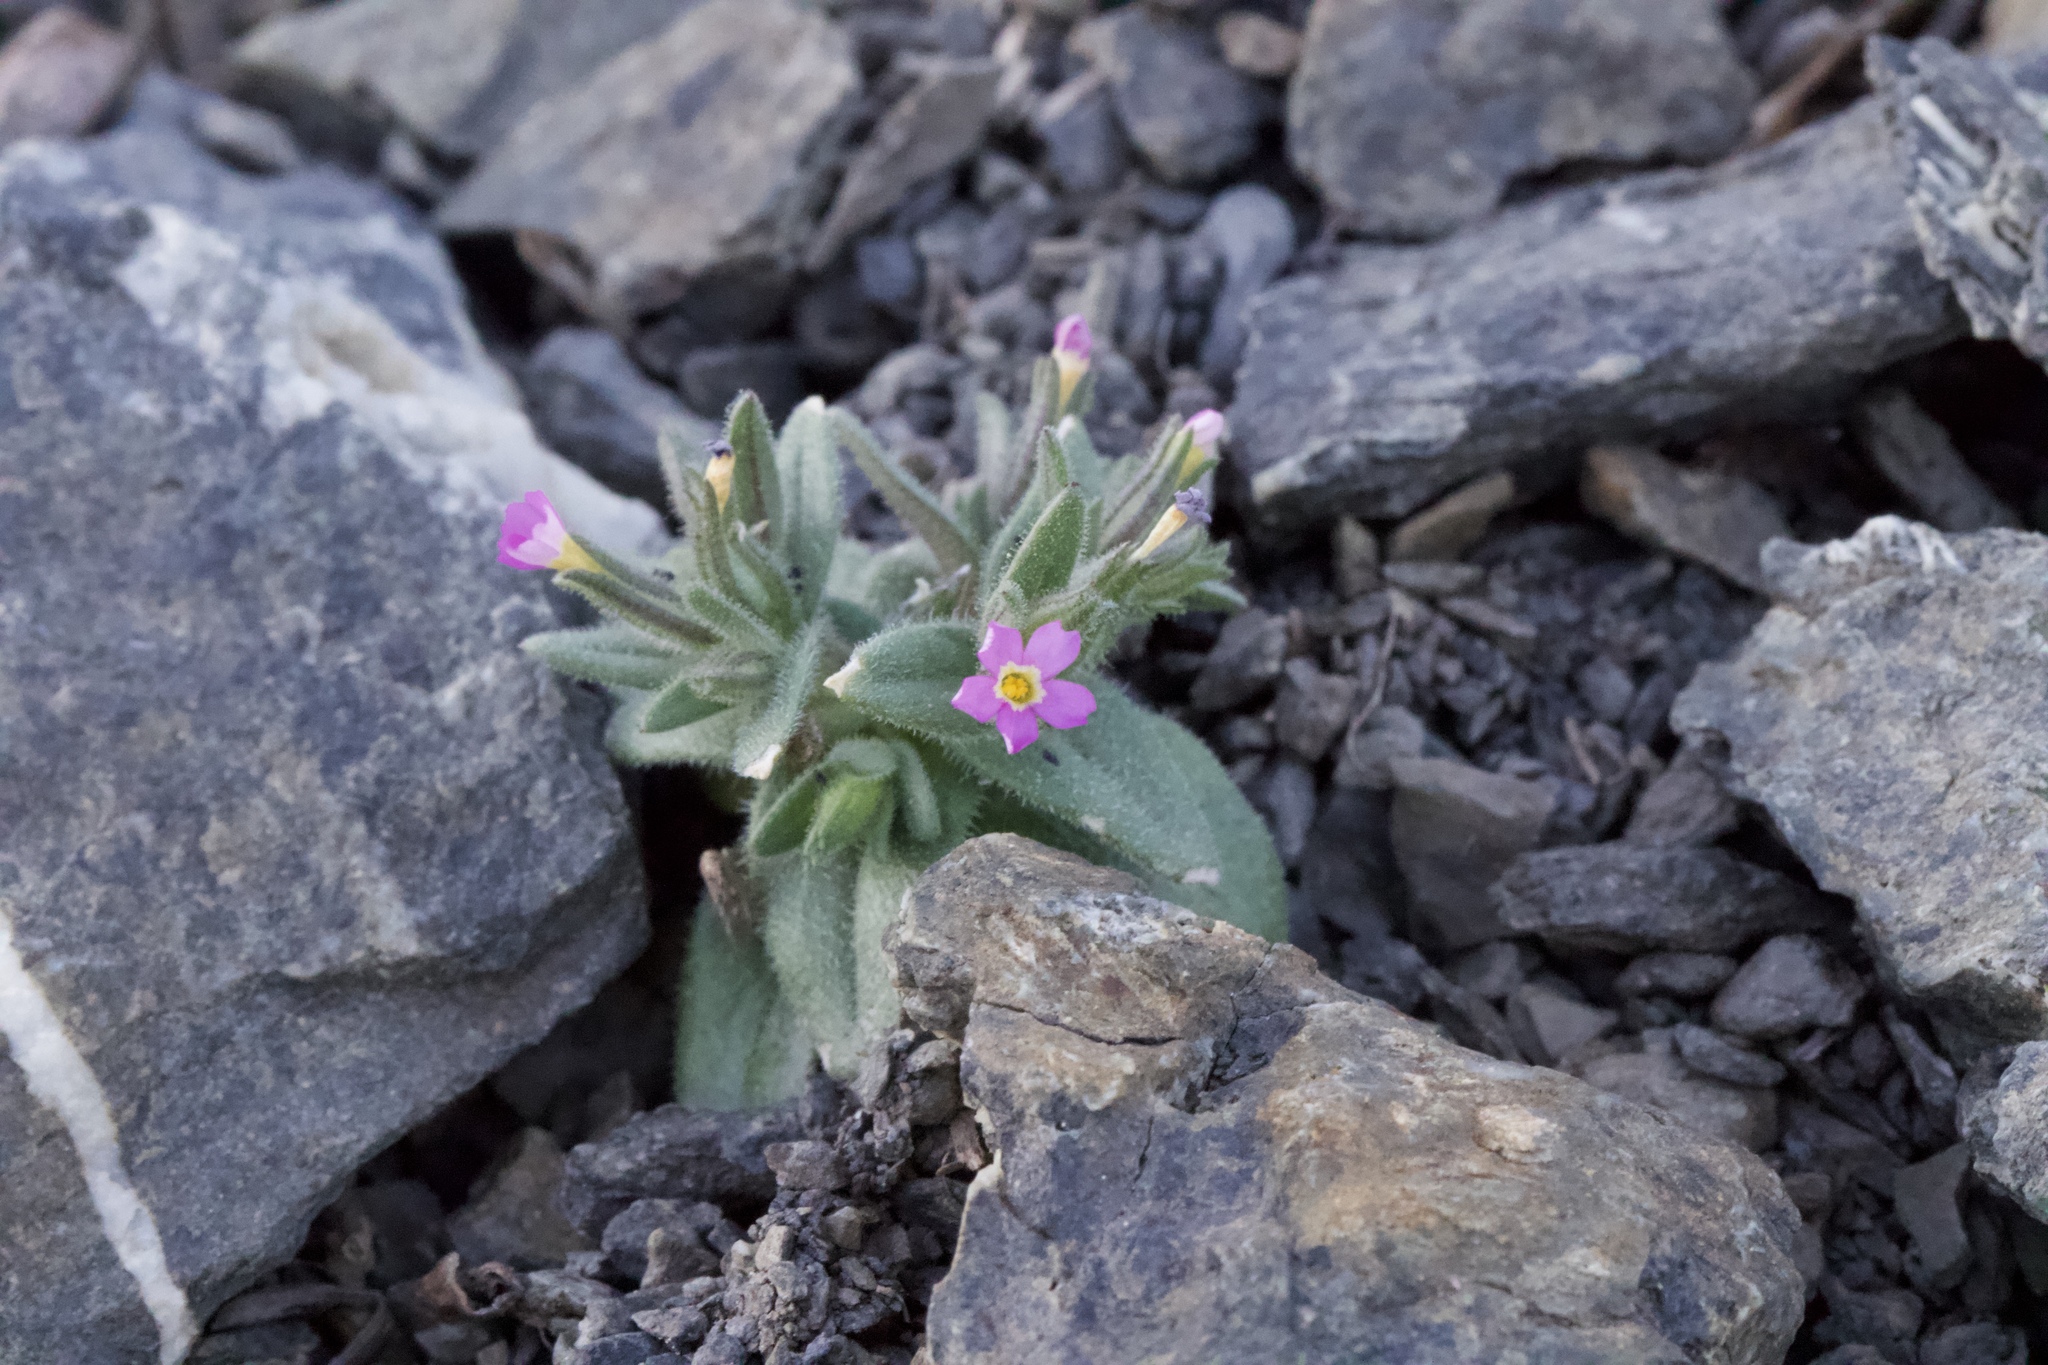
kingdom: Plantae
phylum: Tracheophyta
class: Magnoliopsida
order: Ericales
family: Polemoniaceae
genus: Phlox
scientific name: Phlox gracilis
